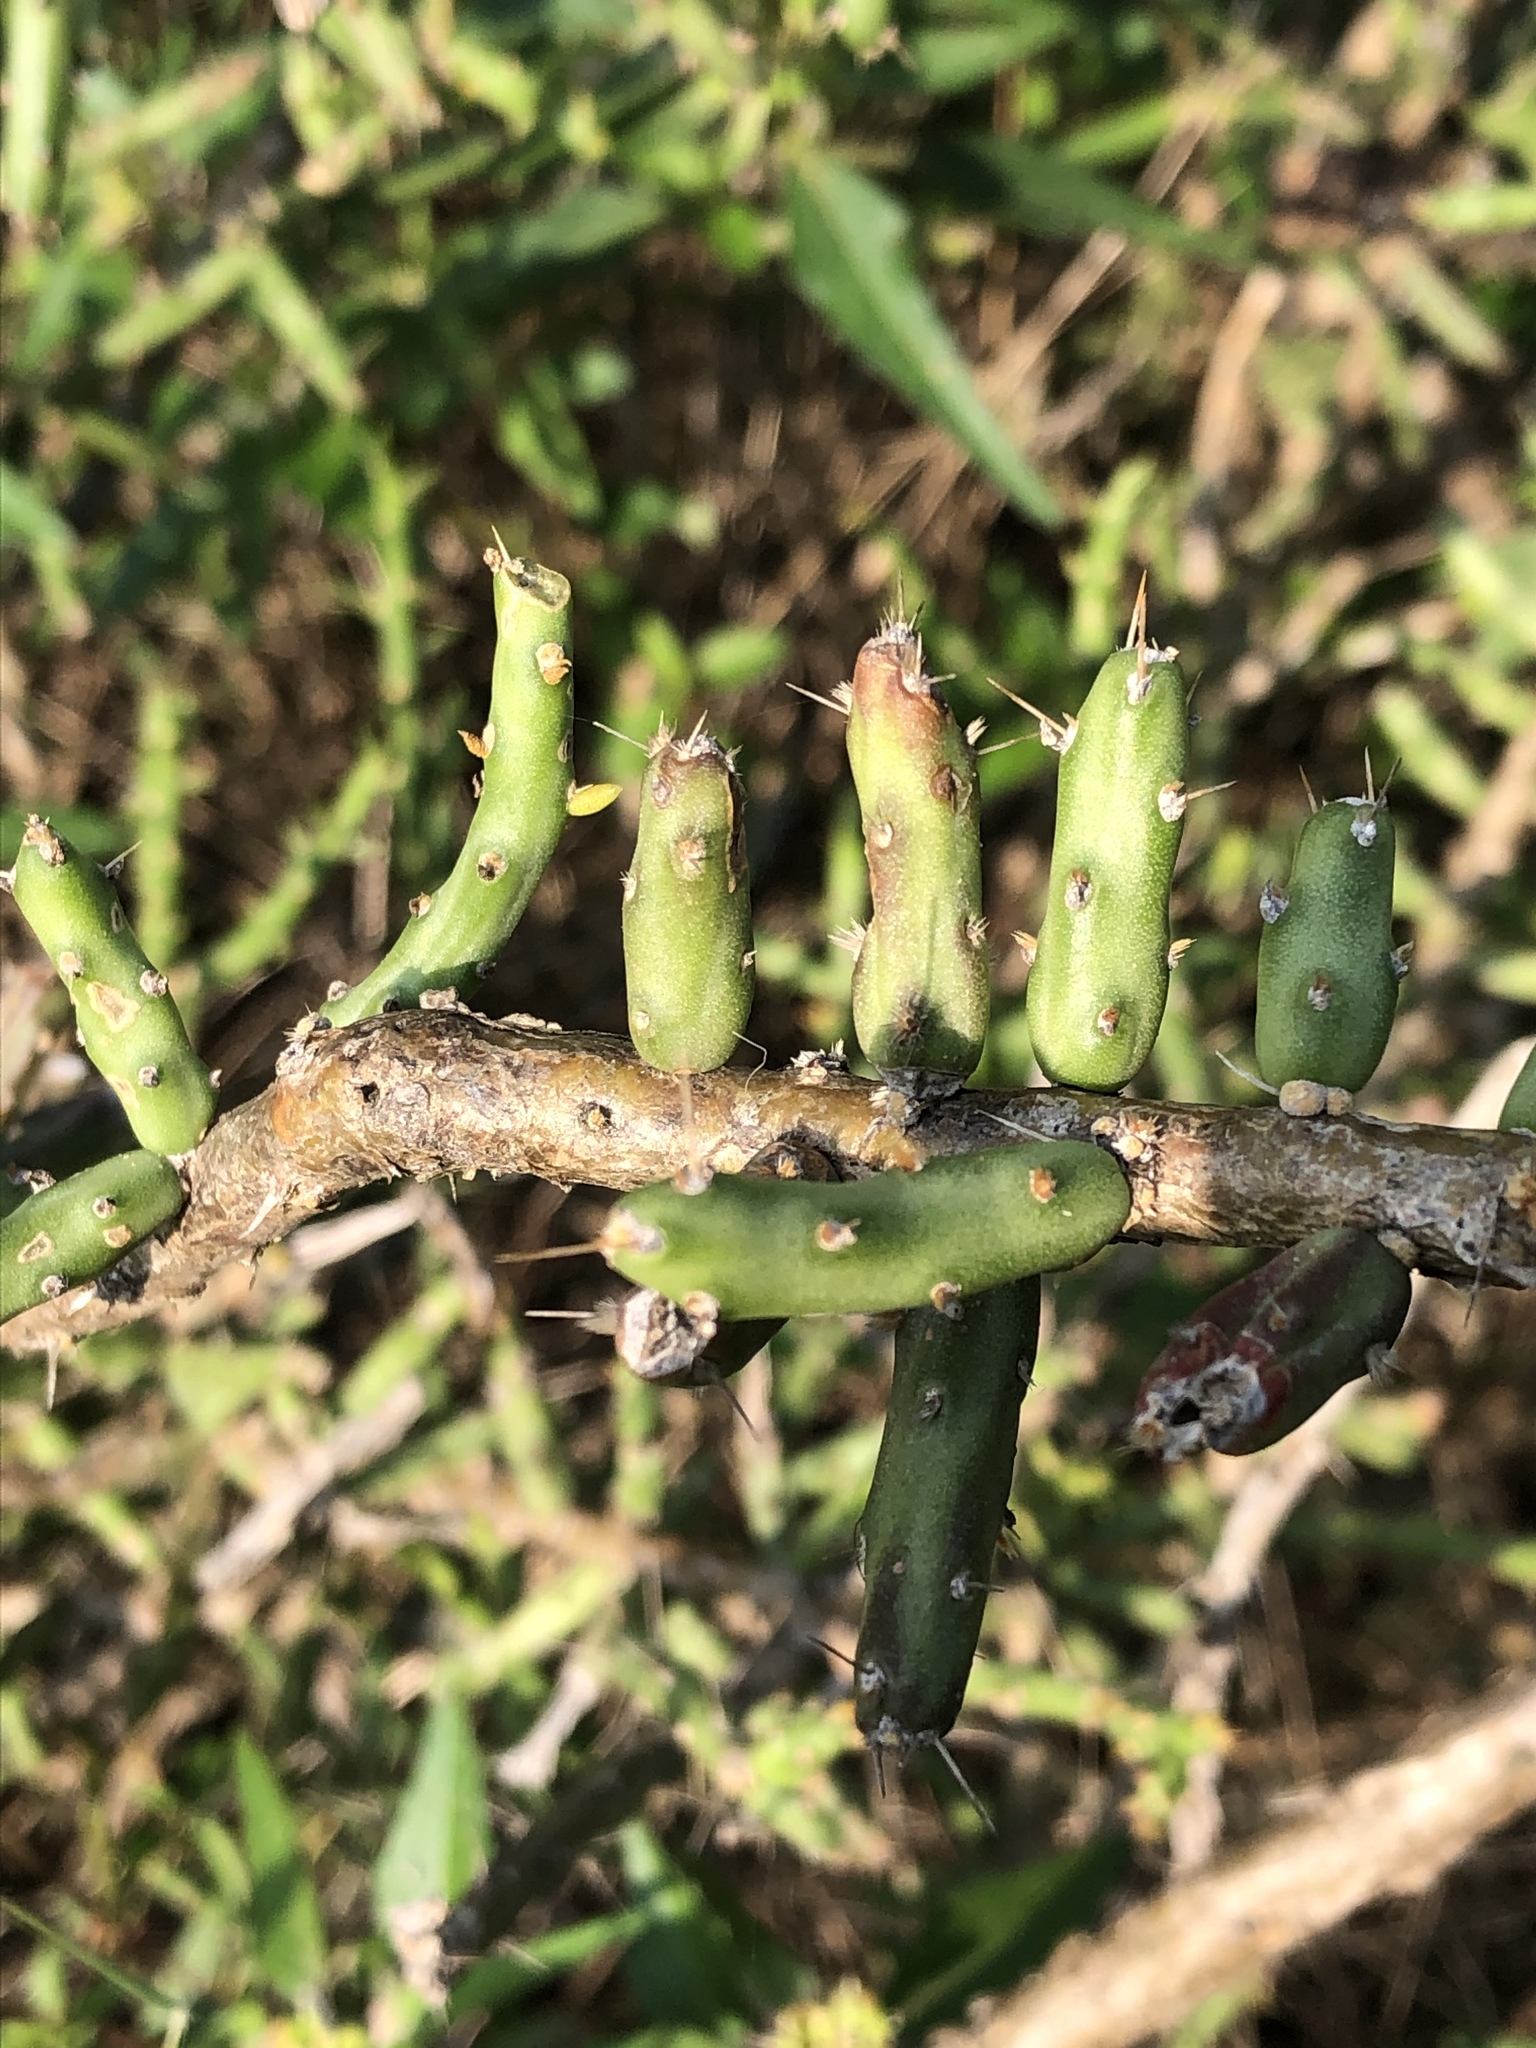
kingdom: Plantae
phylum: Tracheophyta
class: Magnoliopsida
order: Caryophyllales
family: Cactaceae
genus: Cylindropuntia
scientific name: Cylindropuntia leptocaulis
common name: Christmas cactus
